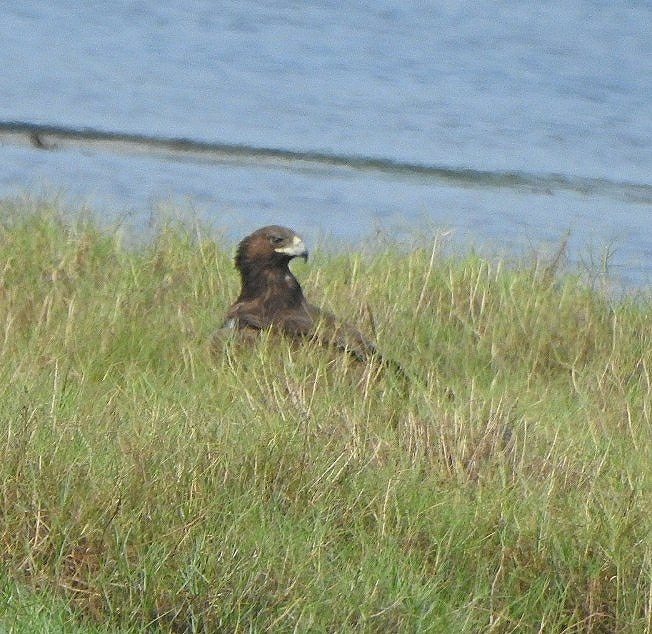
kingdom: Animalia
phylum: Chordata
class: Aves
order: Accipitriformes
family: Accipitridae
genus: Aquila
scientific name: Aquila clanga
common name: Greater spotted eagle
